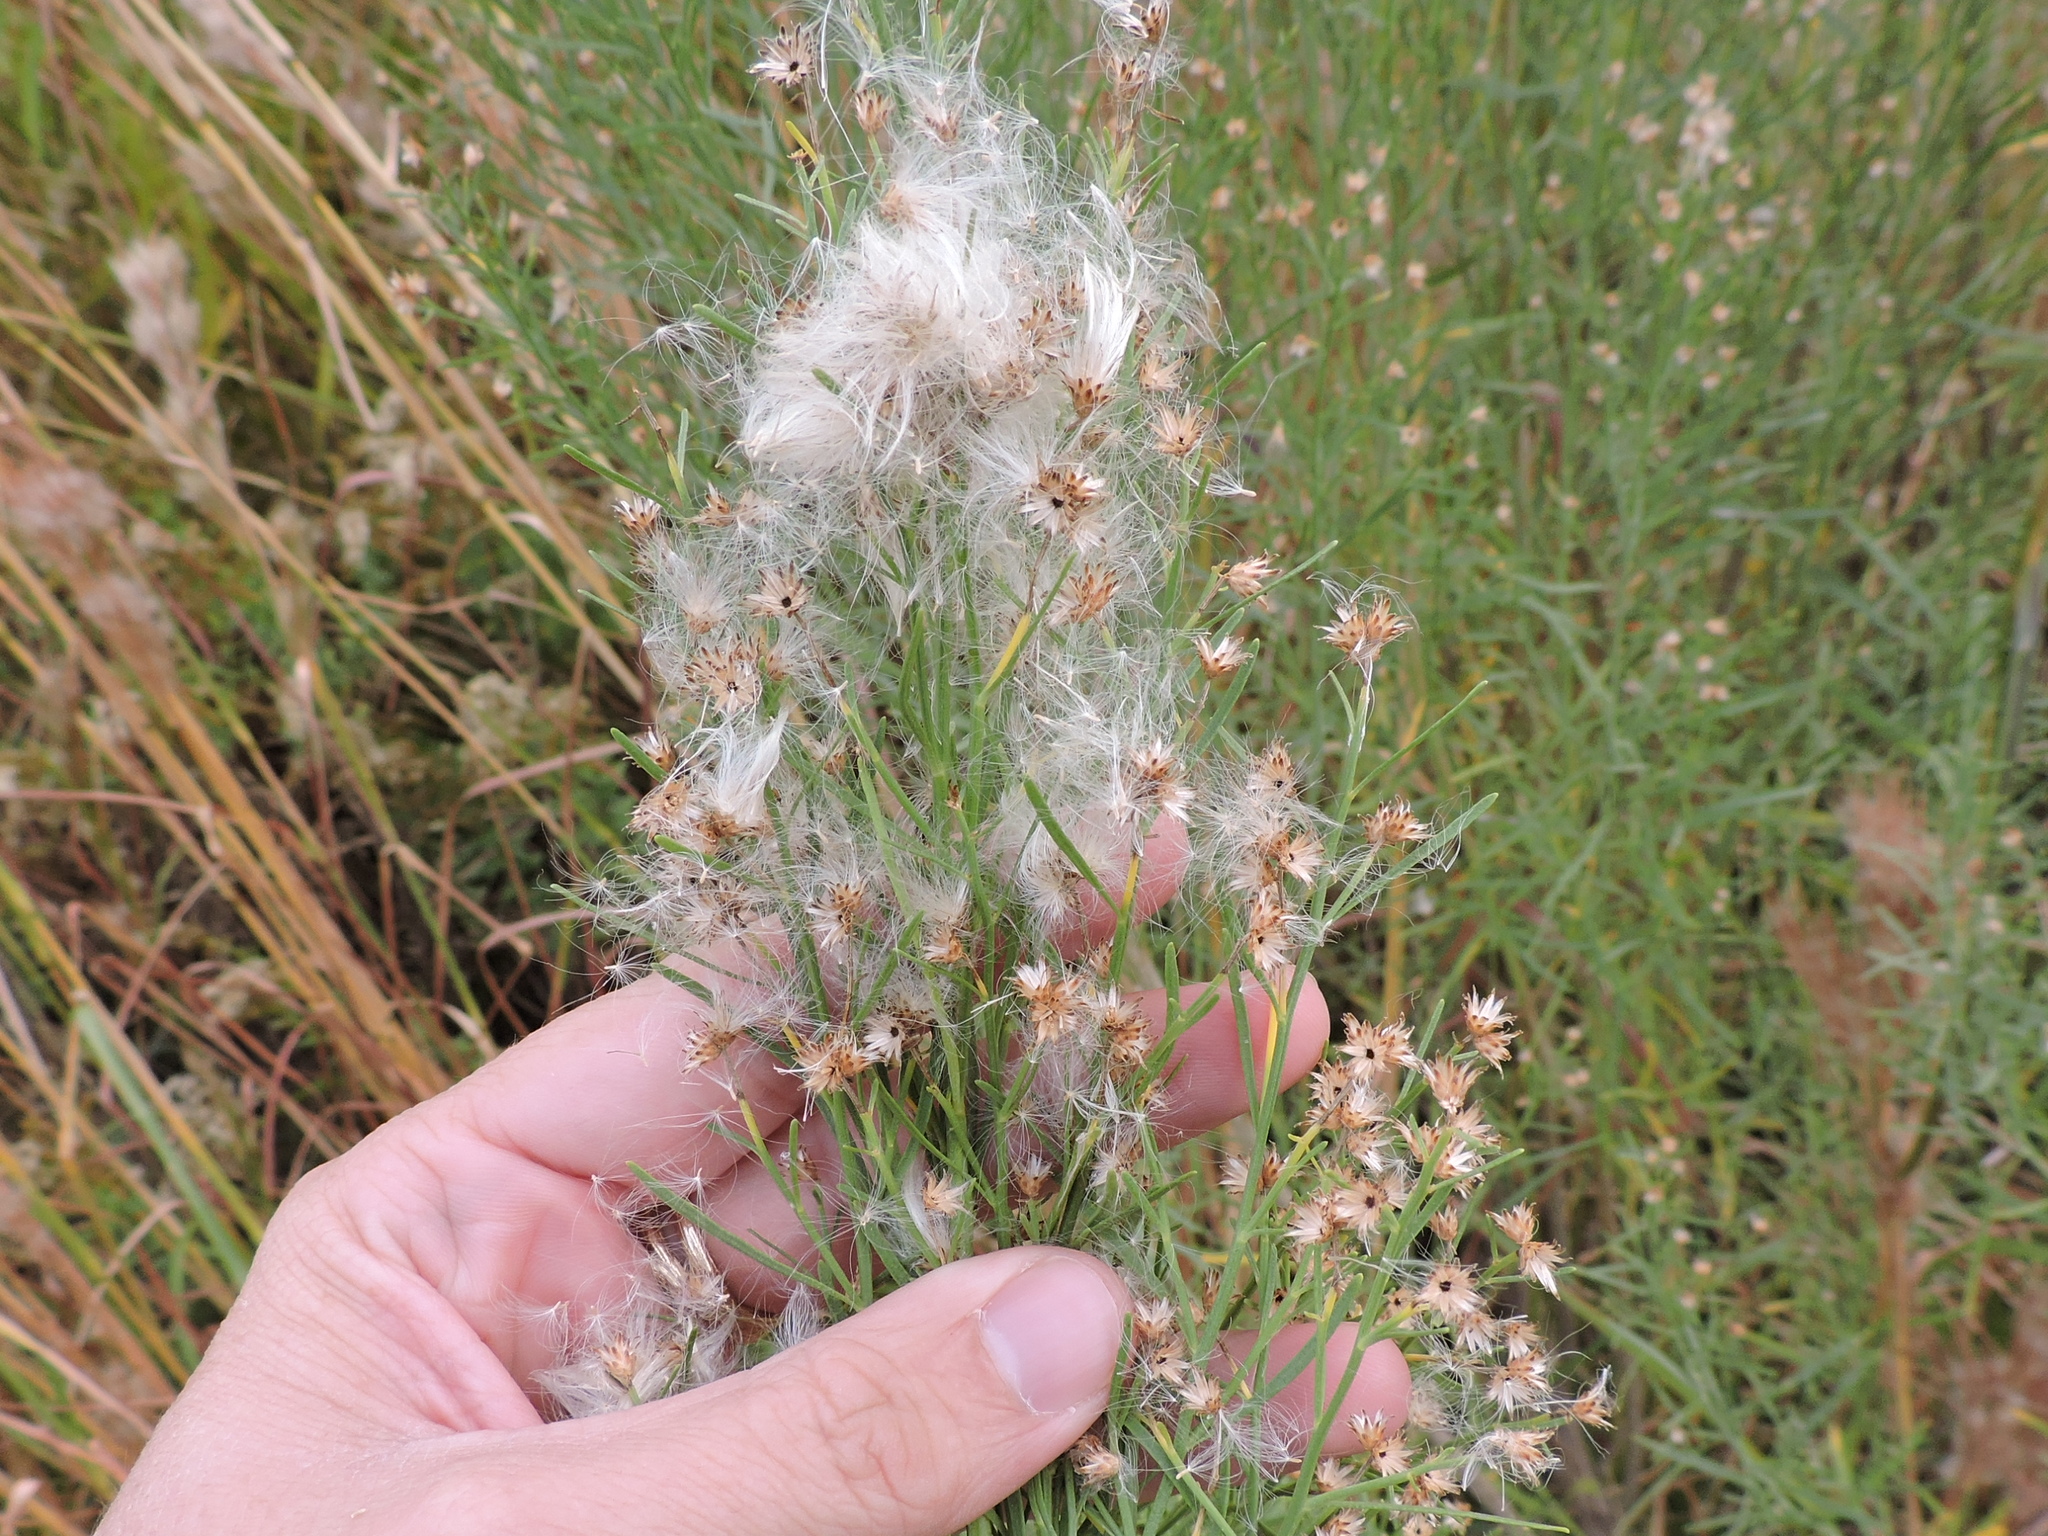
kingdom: Plantae
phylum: Tracheophyta
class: Magnoliopsida
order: Asterales
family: Asteraceae
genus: Baccharis
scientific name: Baccharis neglecta
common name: Roosevelt-weed
